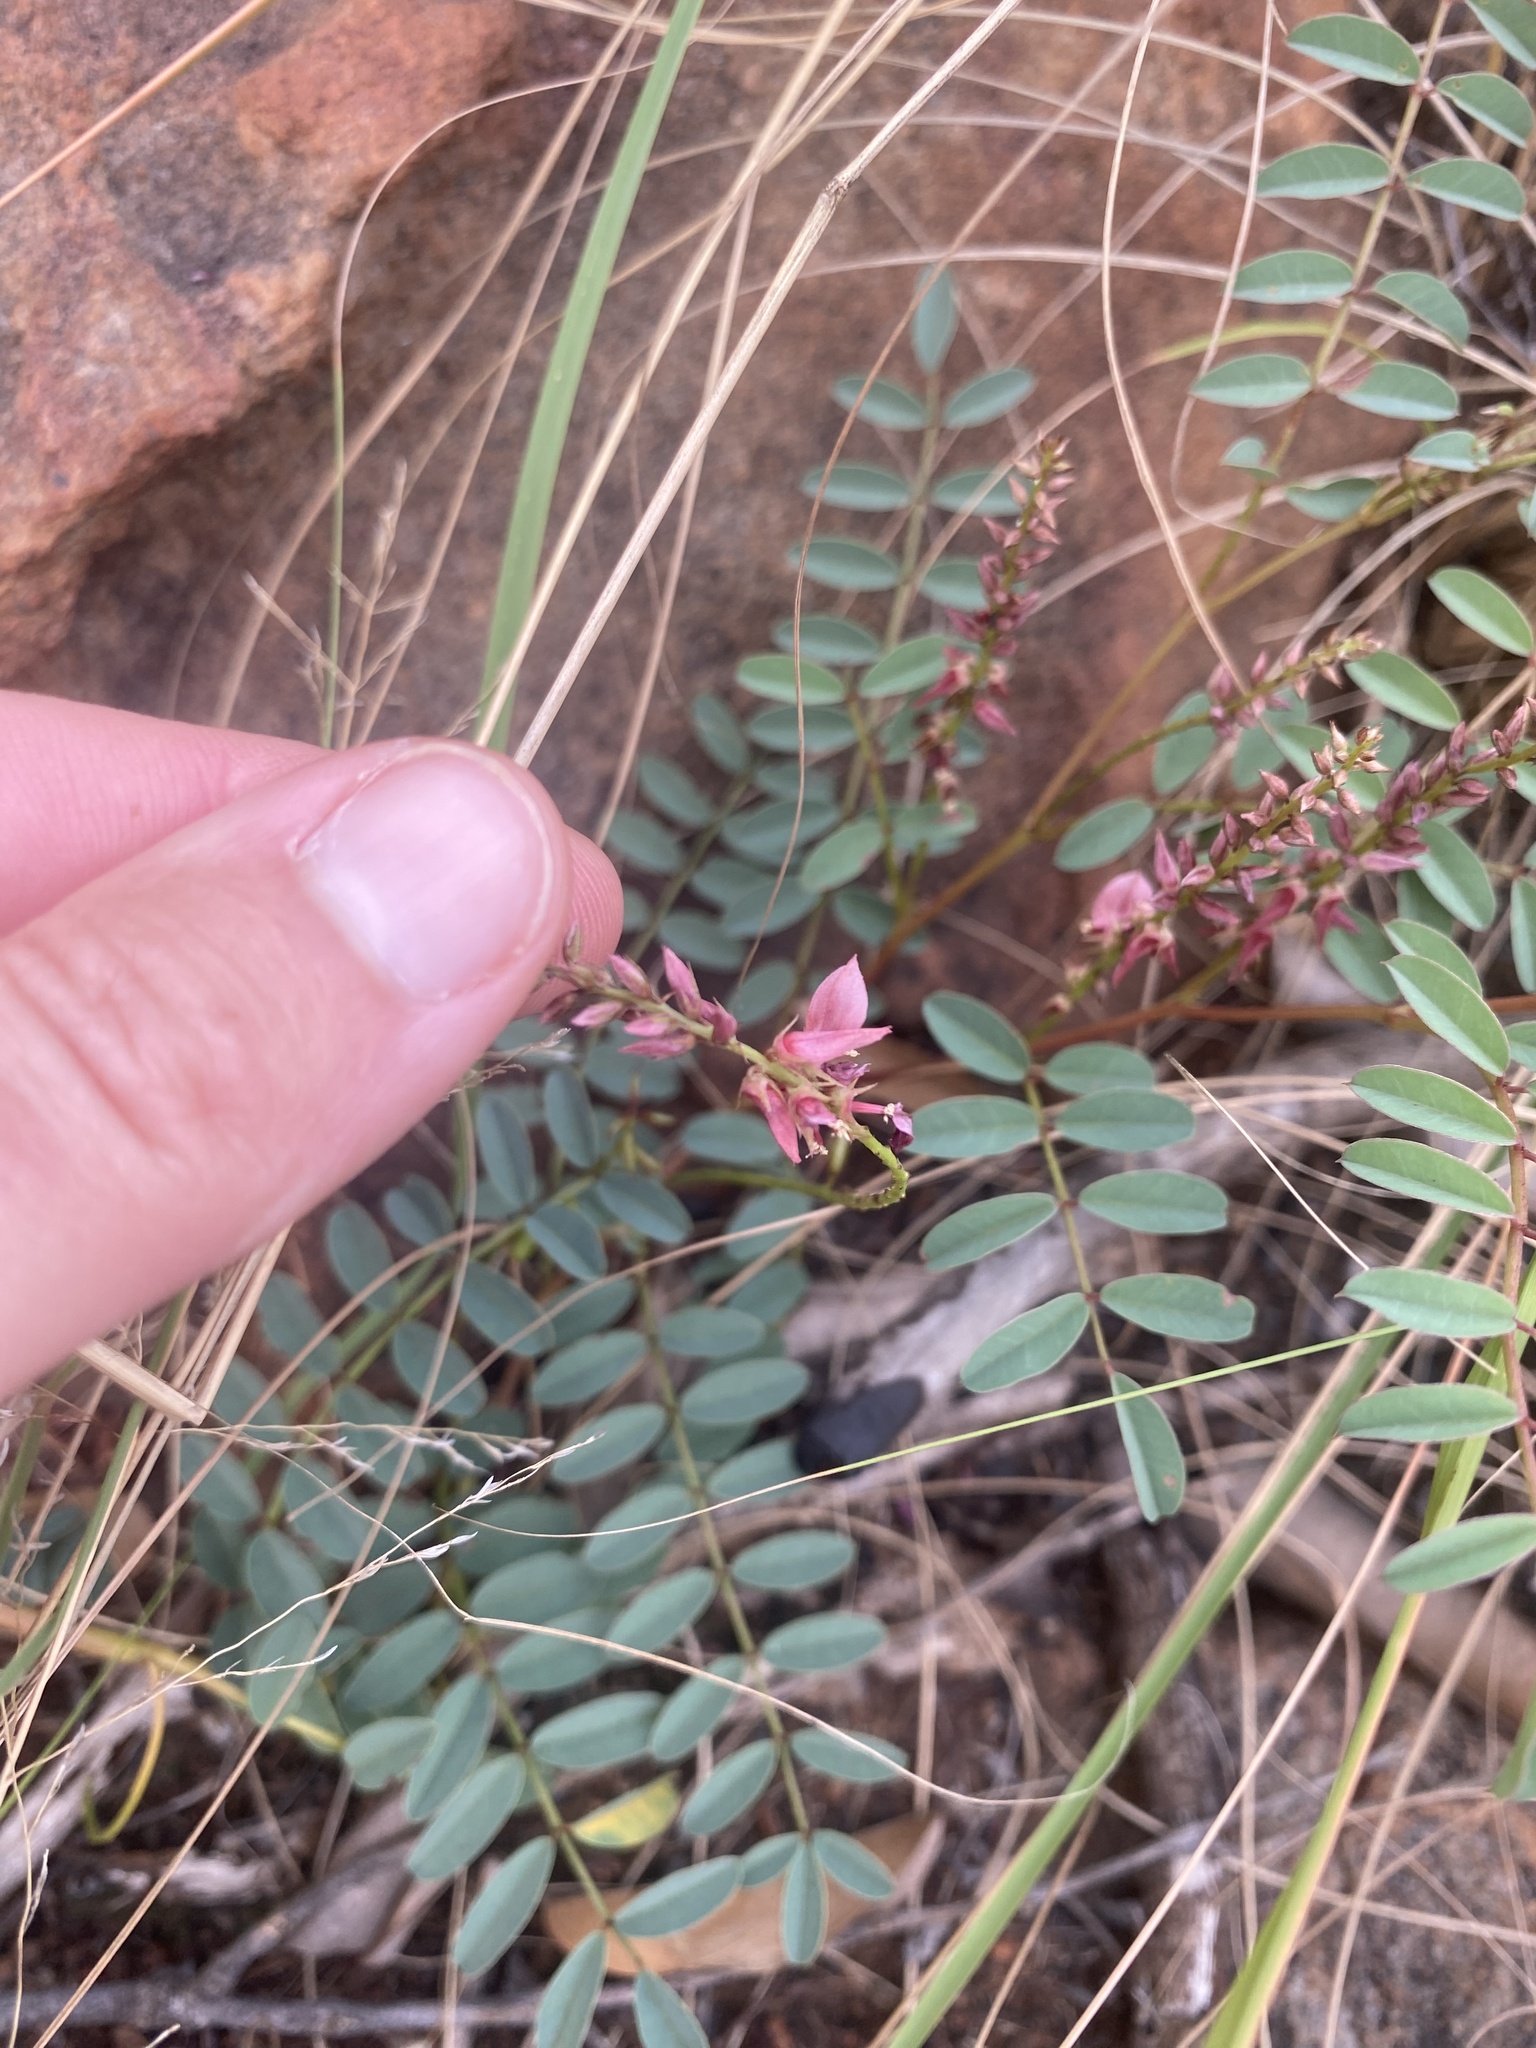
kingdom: Plantae
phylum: Tracheophyta
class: Magnoliopsida
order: Fabales
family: Fabaceae
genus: Indigofera
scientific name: Indigofera williamsonii
